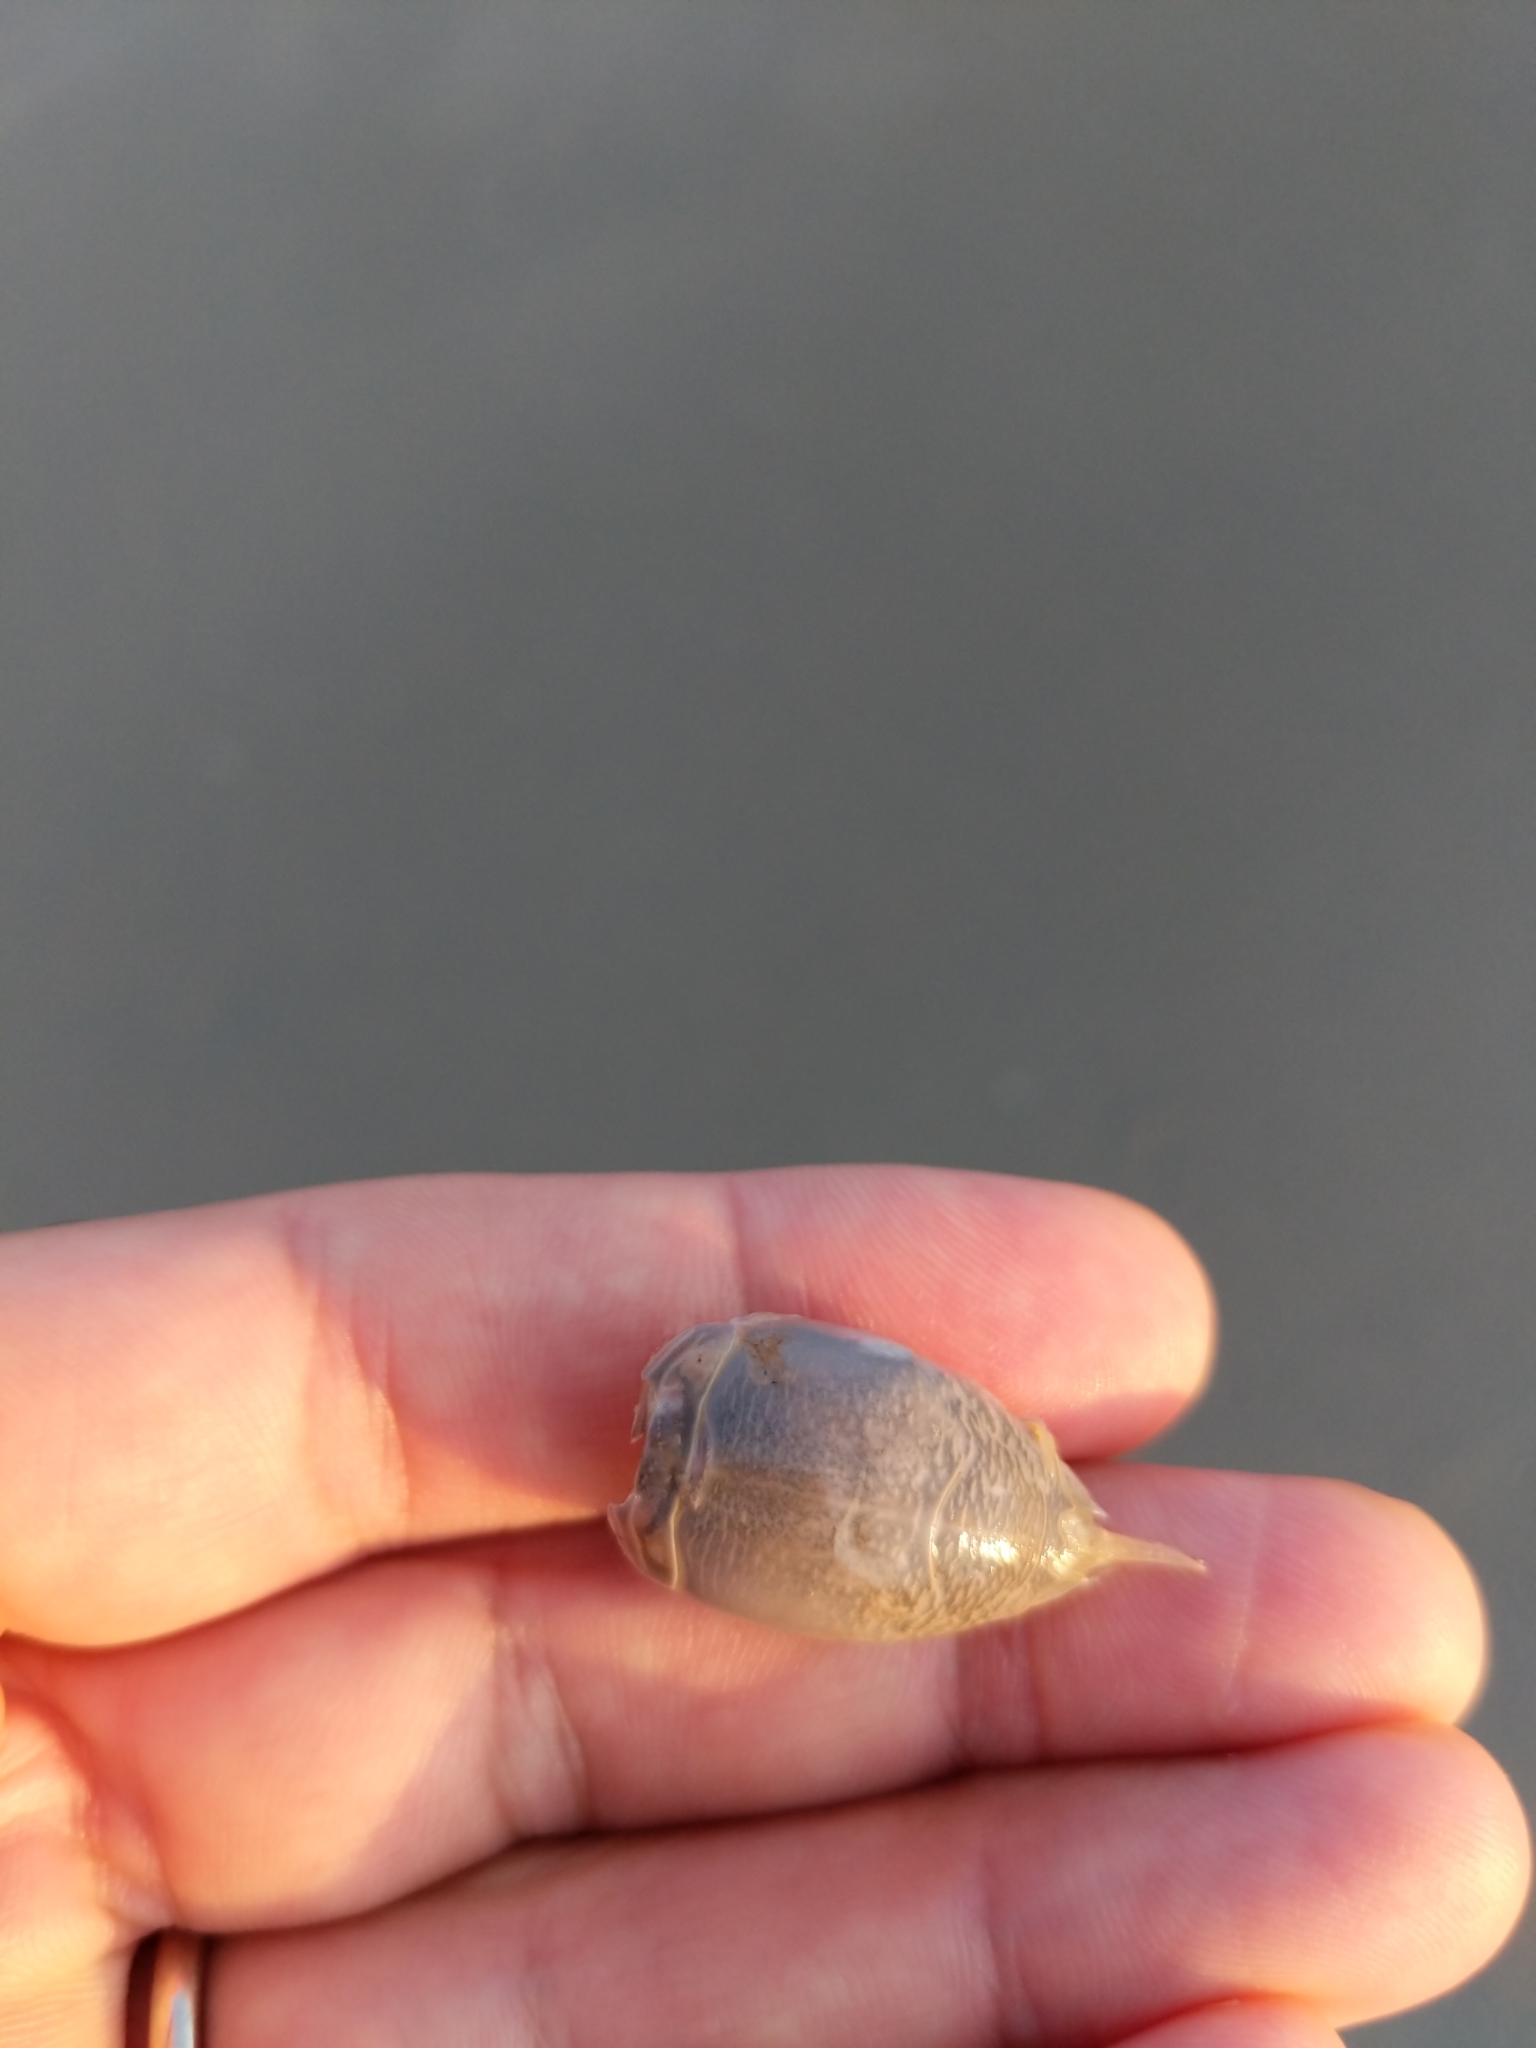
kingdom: Animalia
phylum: Arthropoda
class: Malacostraca
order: Decapoda
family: Hippidae
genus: Emerita
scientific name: Emerita talpoida
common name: Atlantic sand crab
